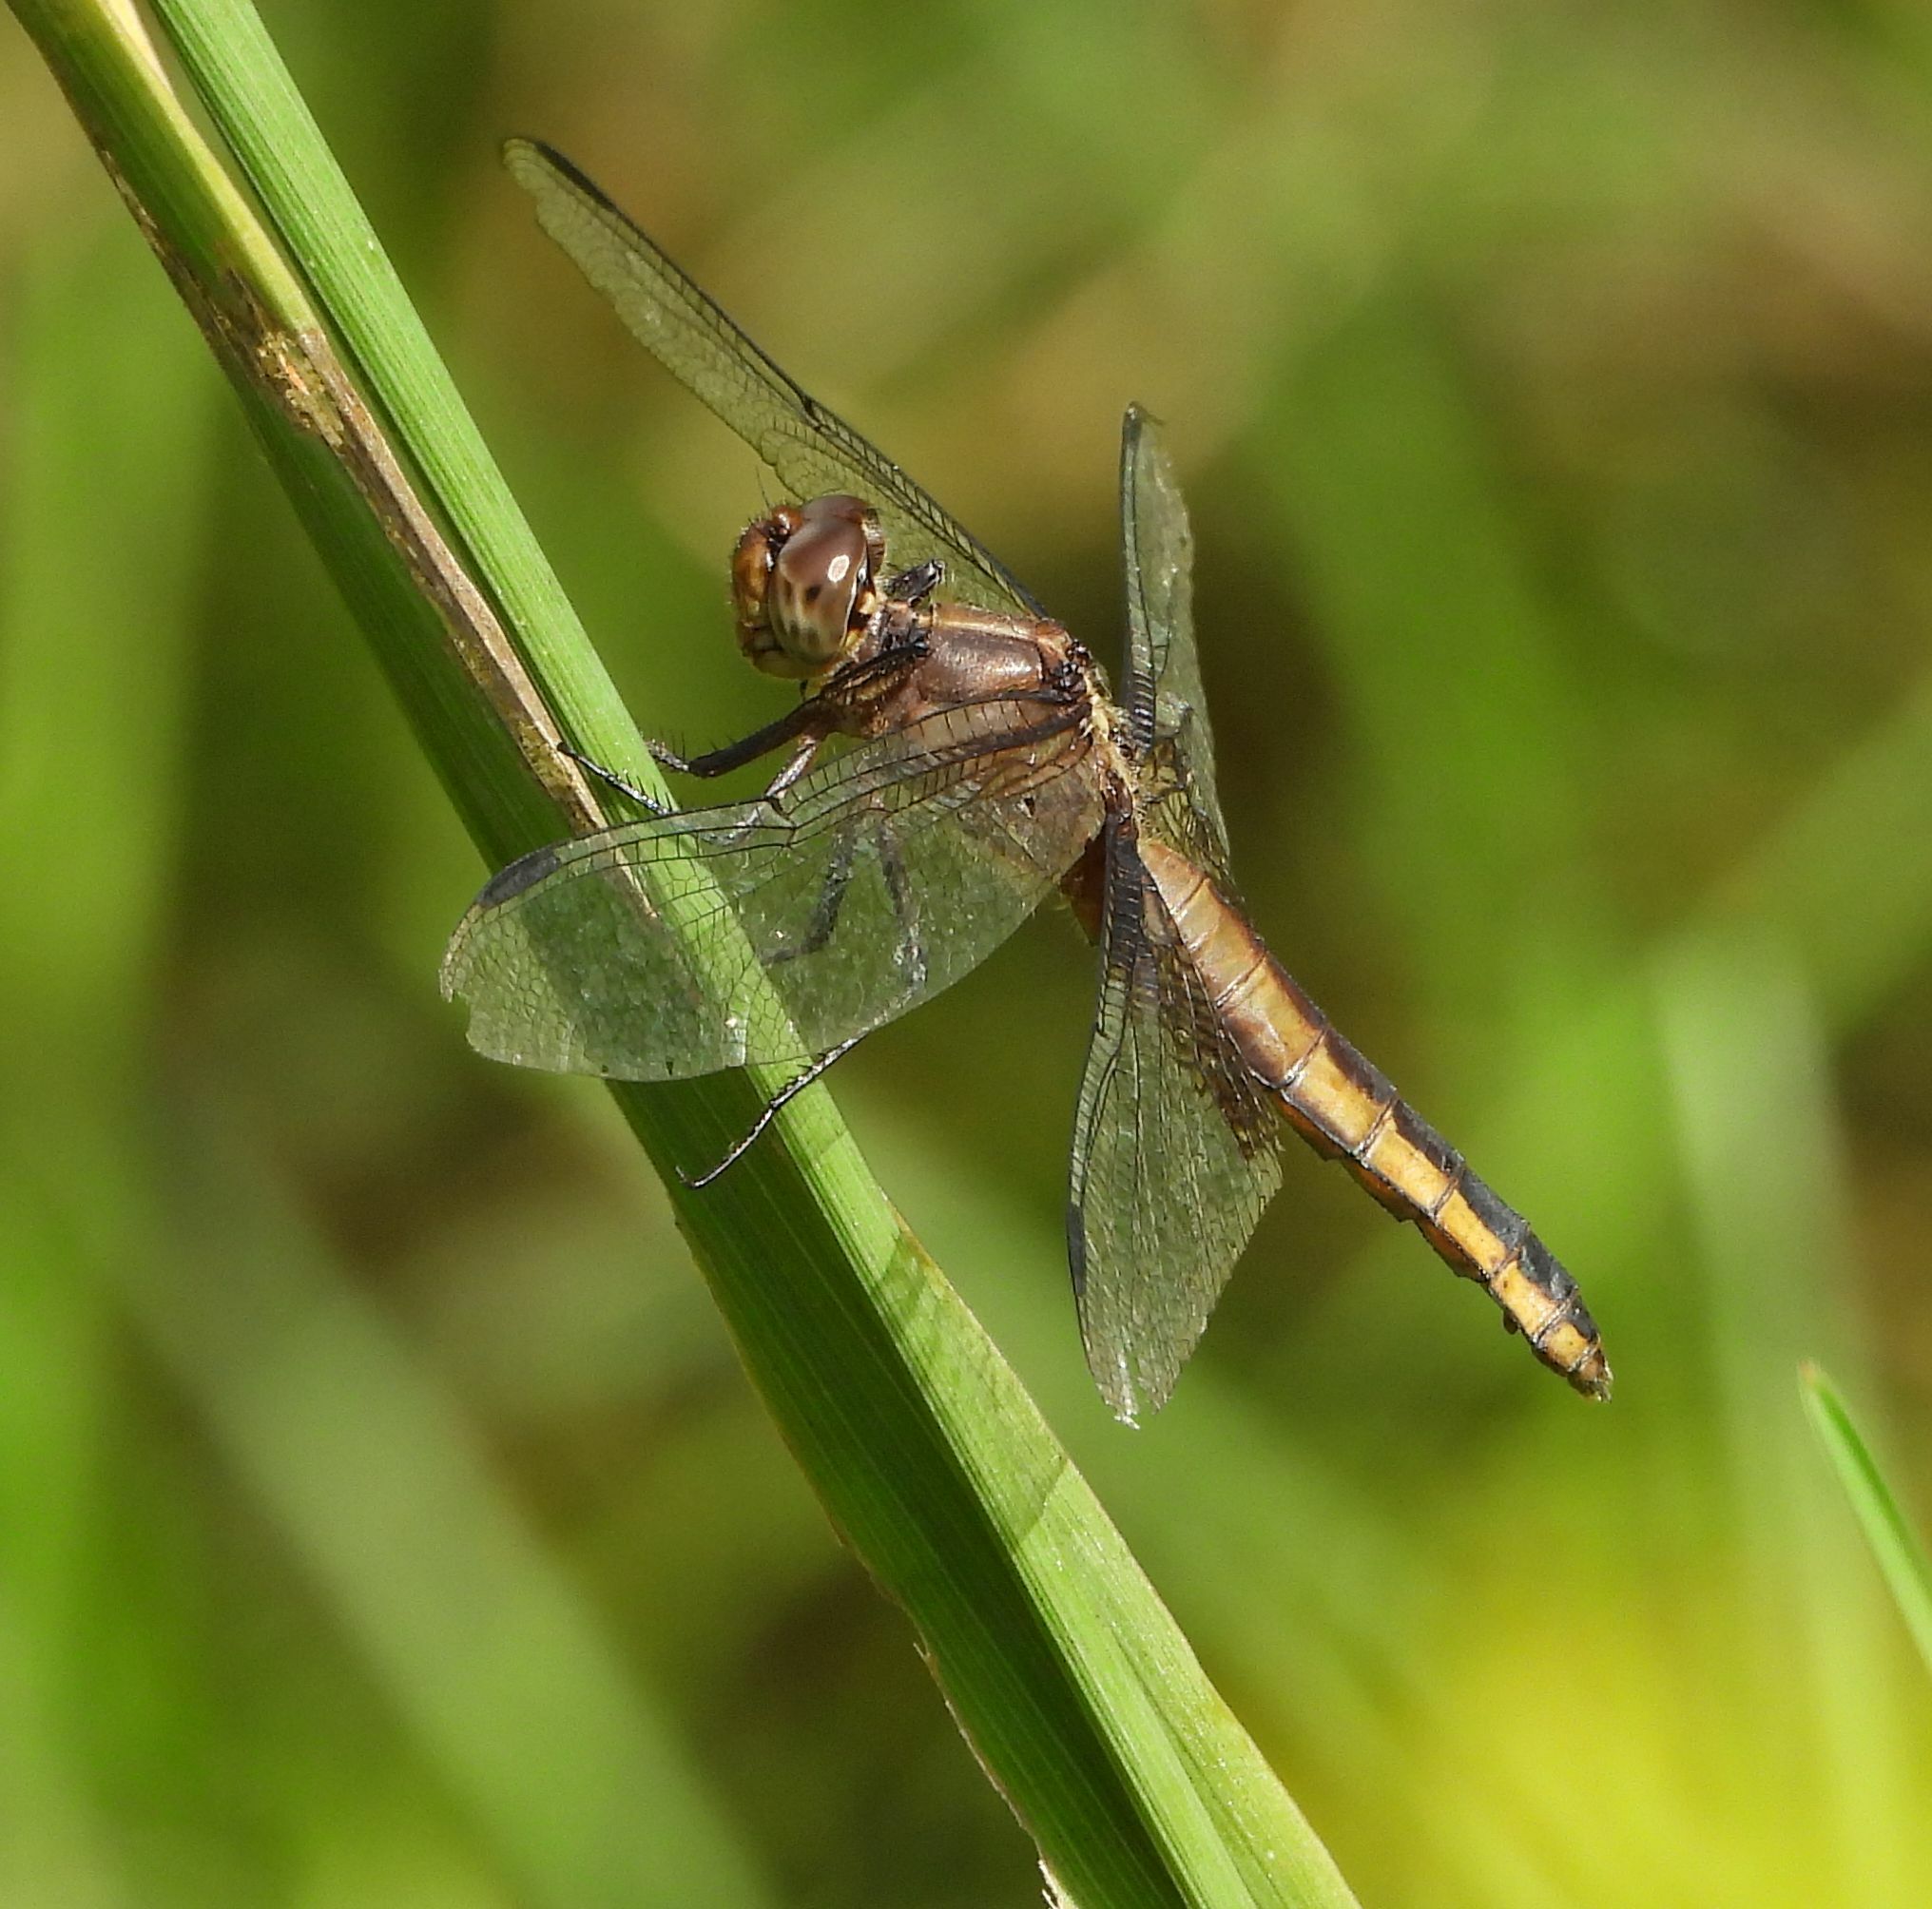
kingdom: Animalia
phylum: Arthropoda
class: Insecta
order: Odonata
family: Libellulidae
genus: Libellula
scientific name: Libellula luctuosa
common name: Widow skimmer
